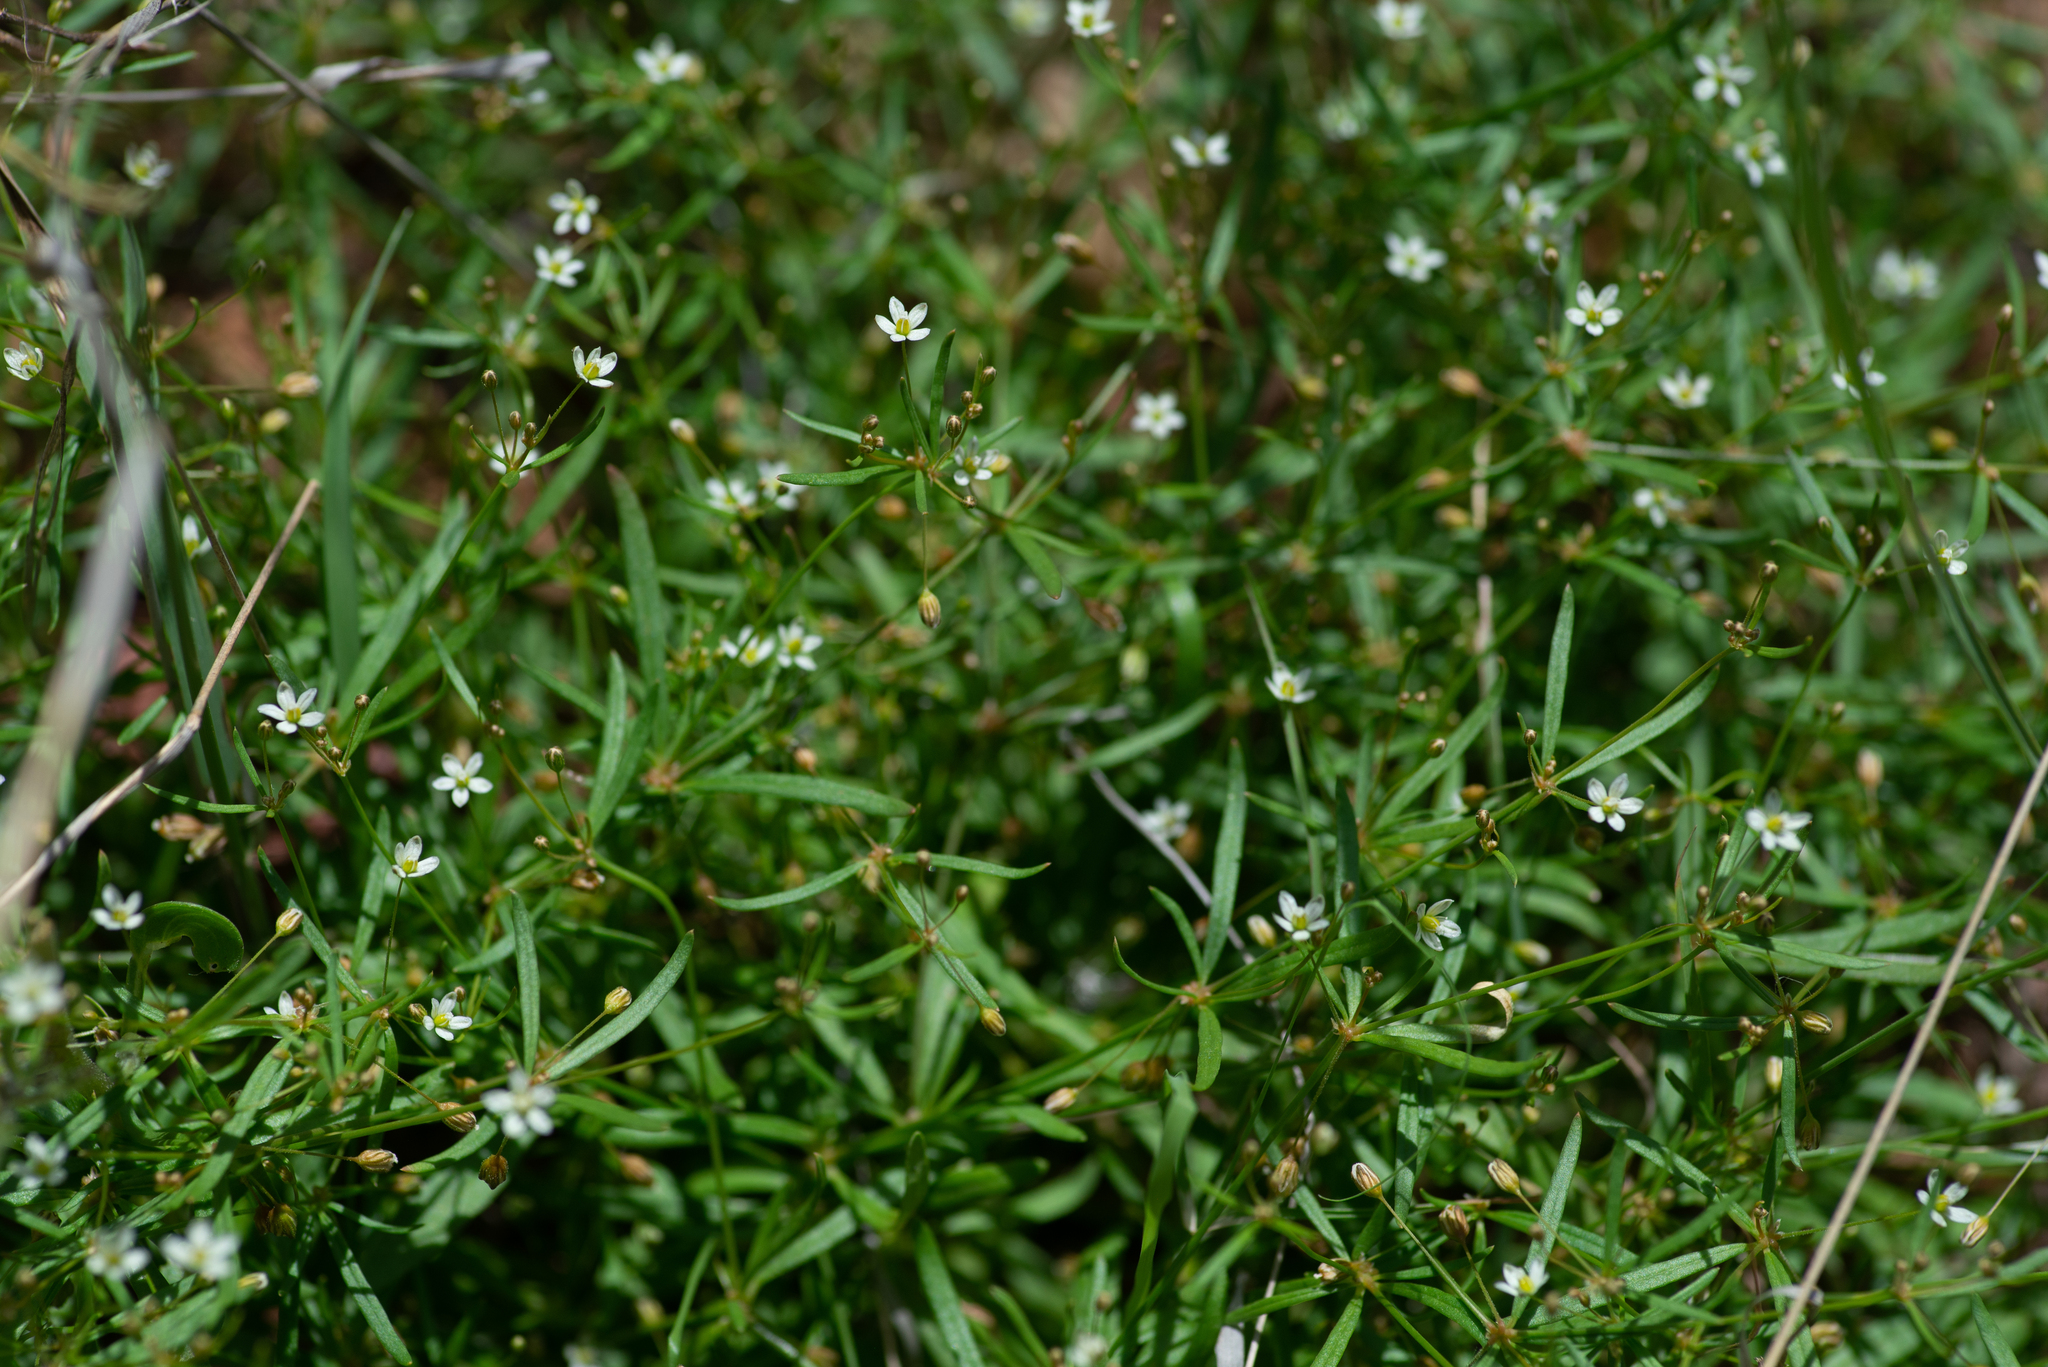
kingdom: Plantae
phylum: Tracheophyta
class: Magnoliopsida
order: Caryophyllales
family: Molluginaceae
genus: Mollugo
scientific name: Mollugo verticillata
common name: Green carpetweed
